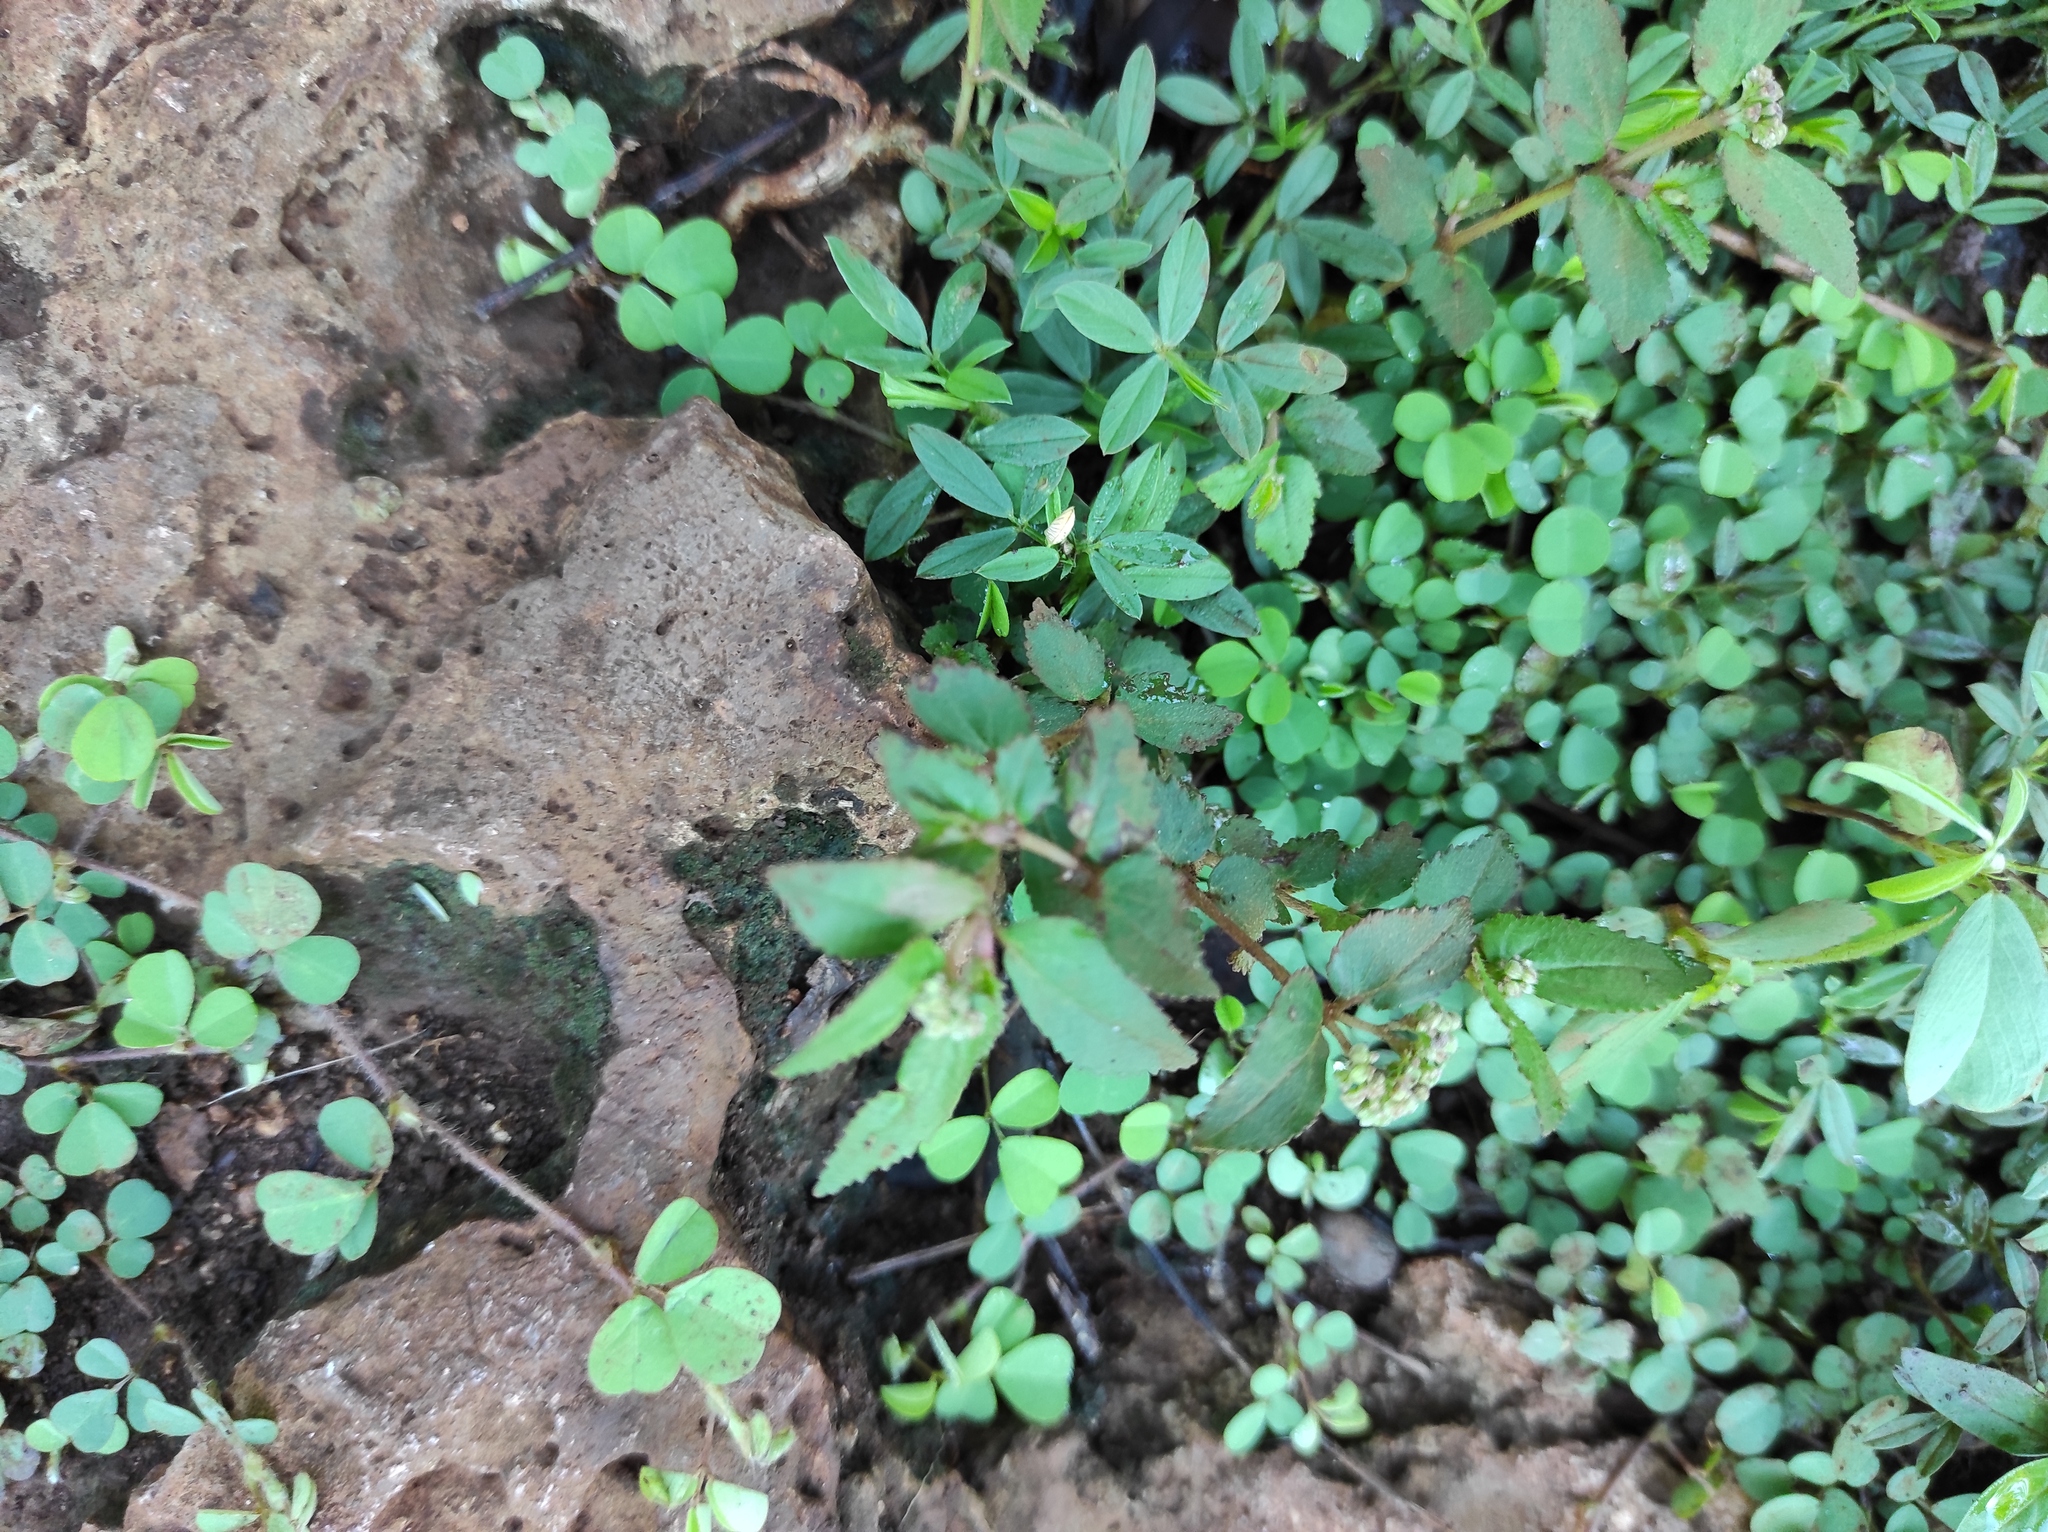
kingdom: Plantae
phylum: Tracheophyta
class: Magnoliopsida
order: Fabales
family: Fabaceae
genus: Stylosanthes
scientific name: Stylosanthes hamata
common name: Cheesytoes
